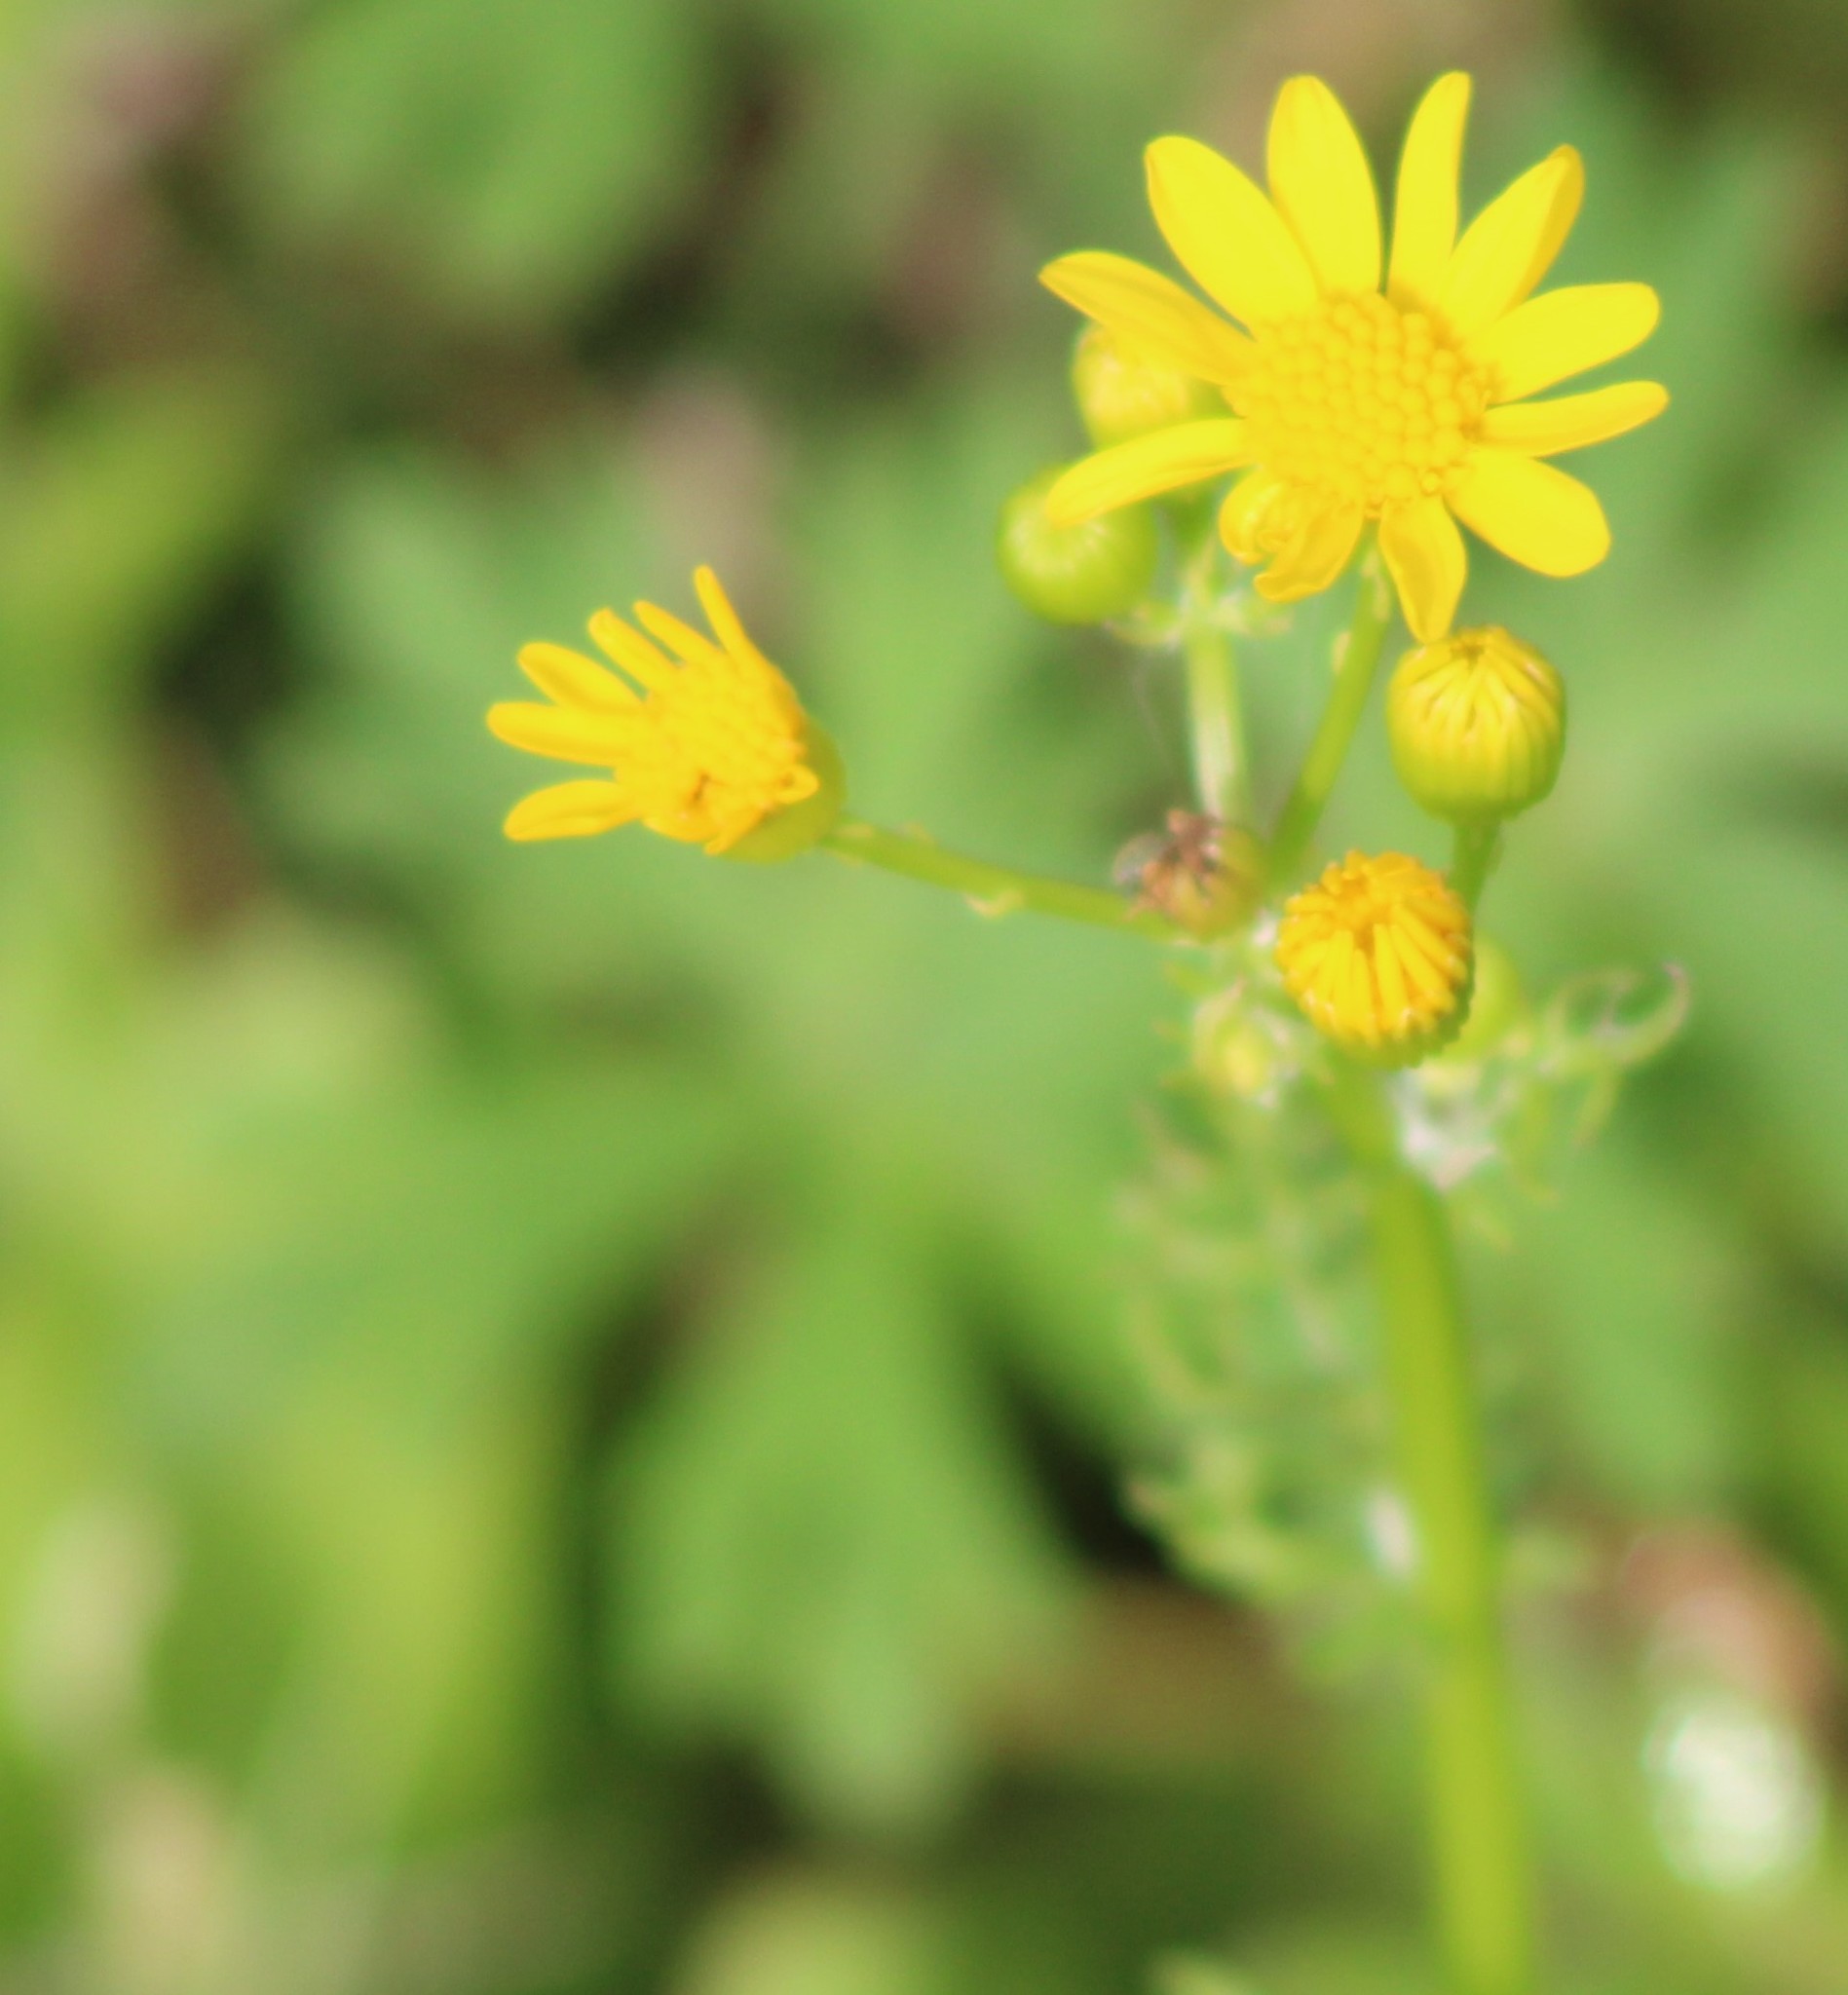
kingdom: Plantae
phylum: Tracheophyta
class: Magnoliopsida
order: Asterales
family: Asteraceae
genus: Packera
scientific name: Packera tampicana
